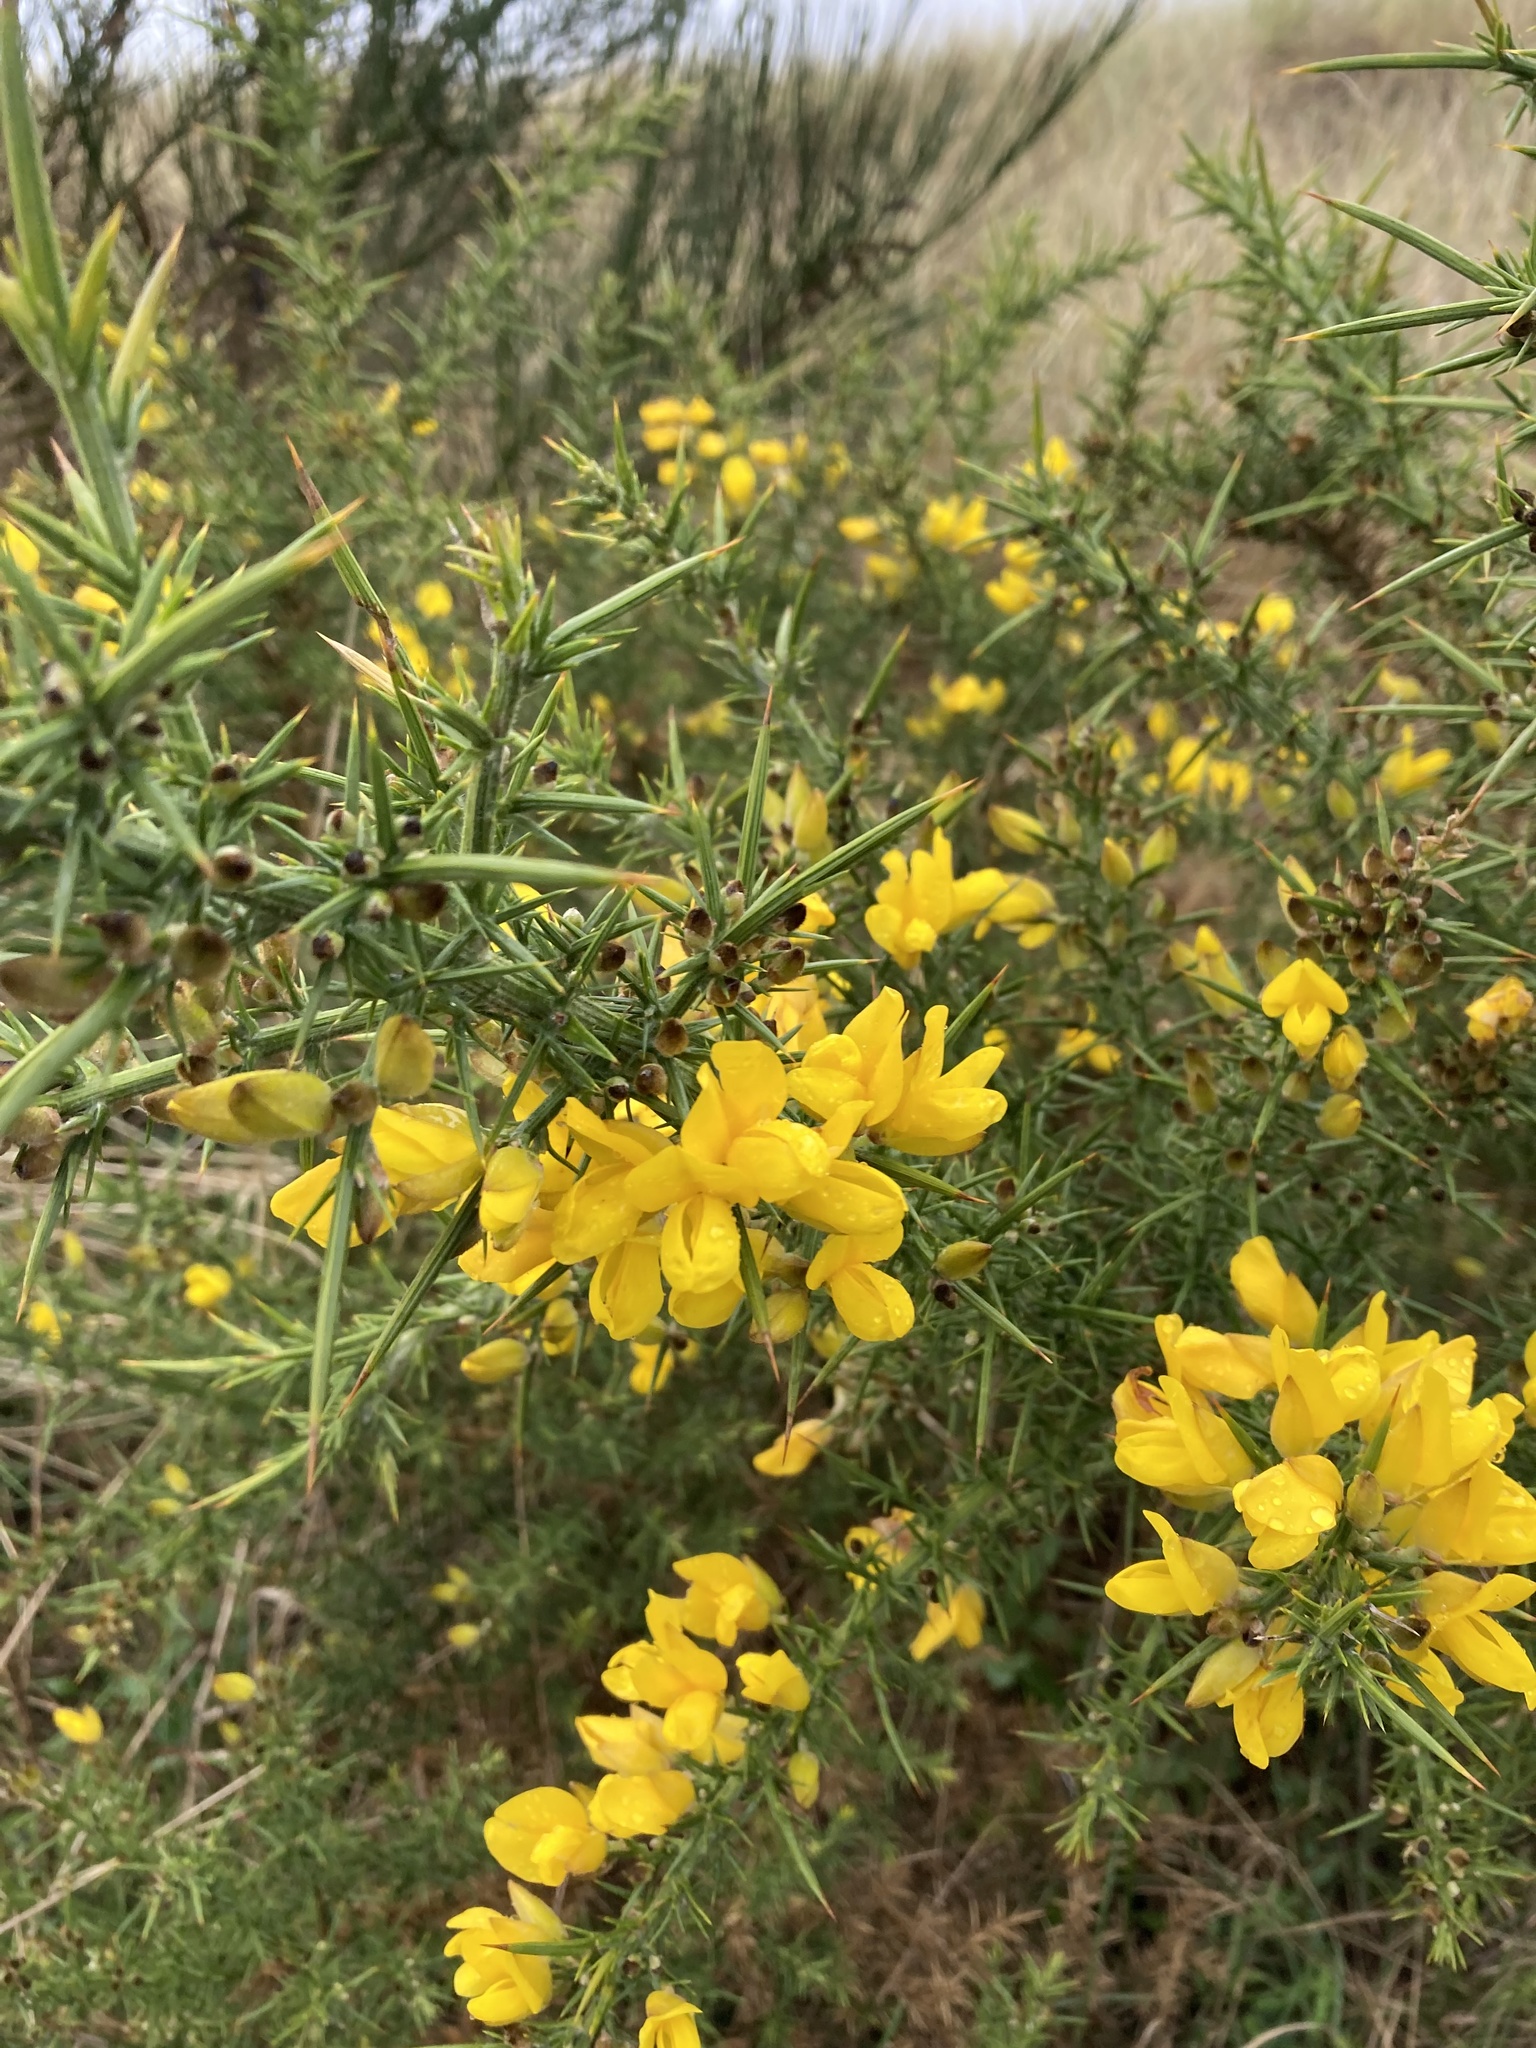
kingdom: Plantae
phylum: Tracheophyta
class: Magnoliopsida
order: Fabales
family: Fabaceae
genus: Ulex
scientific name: Ulex europaeus
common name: Common gorse
